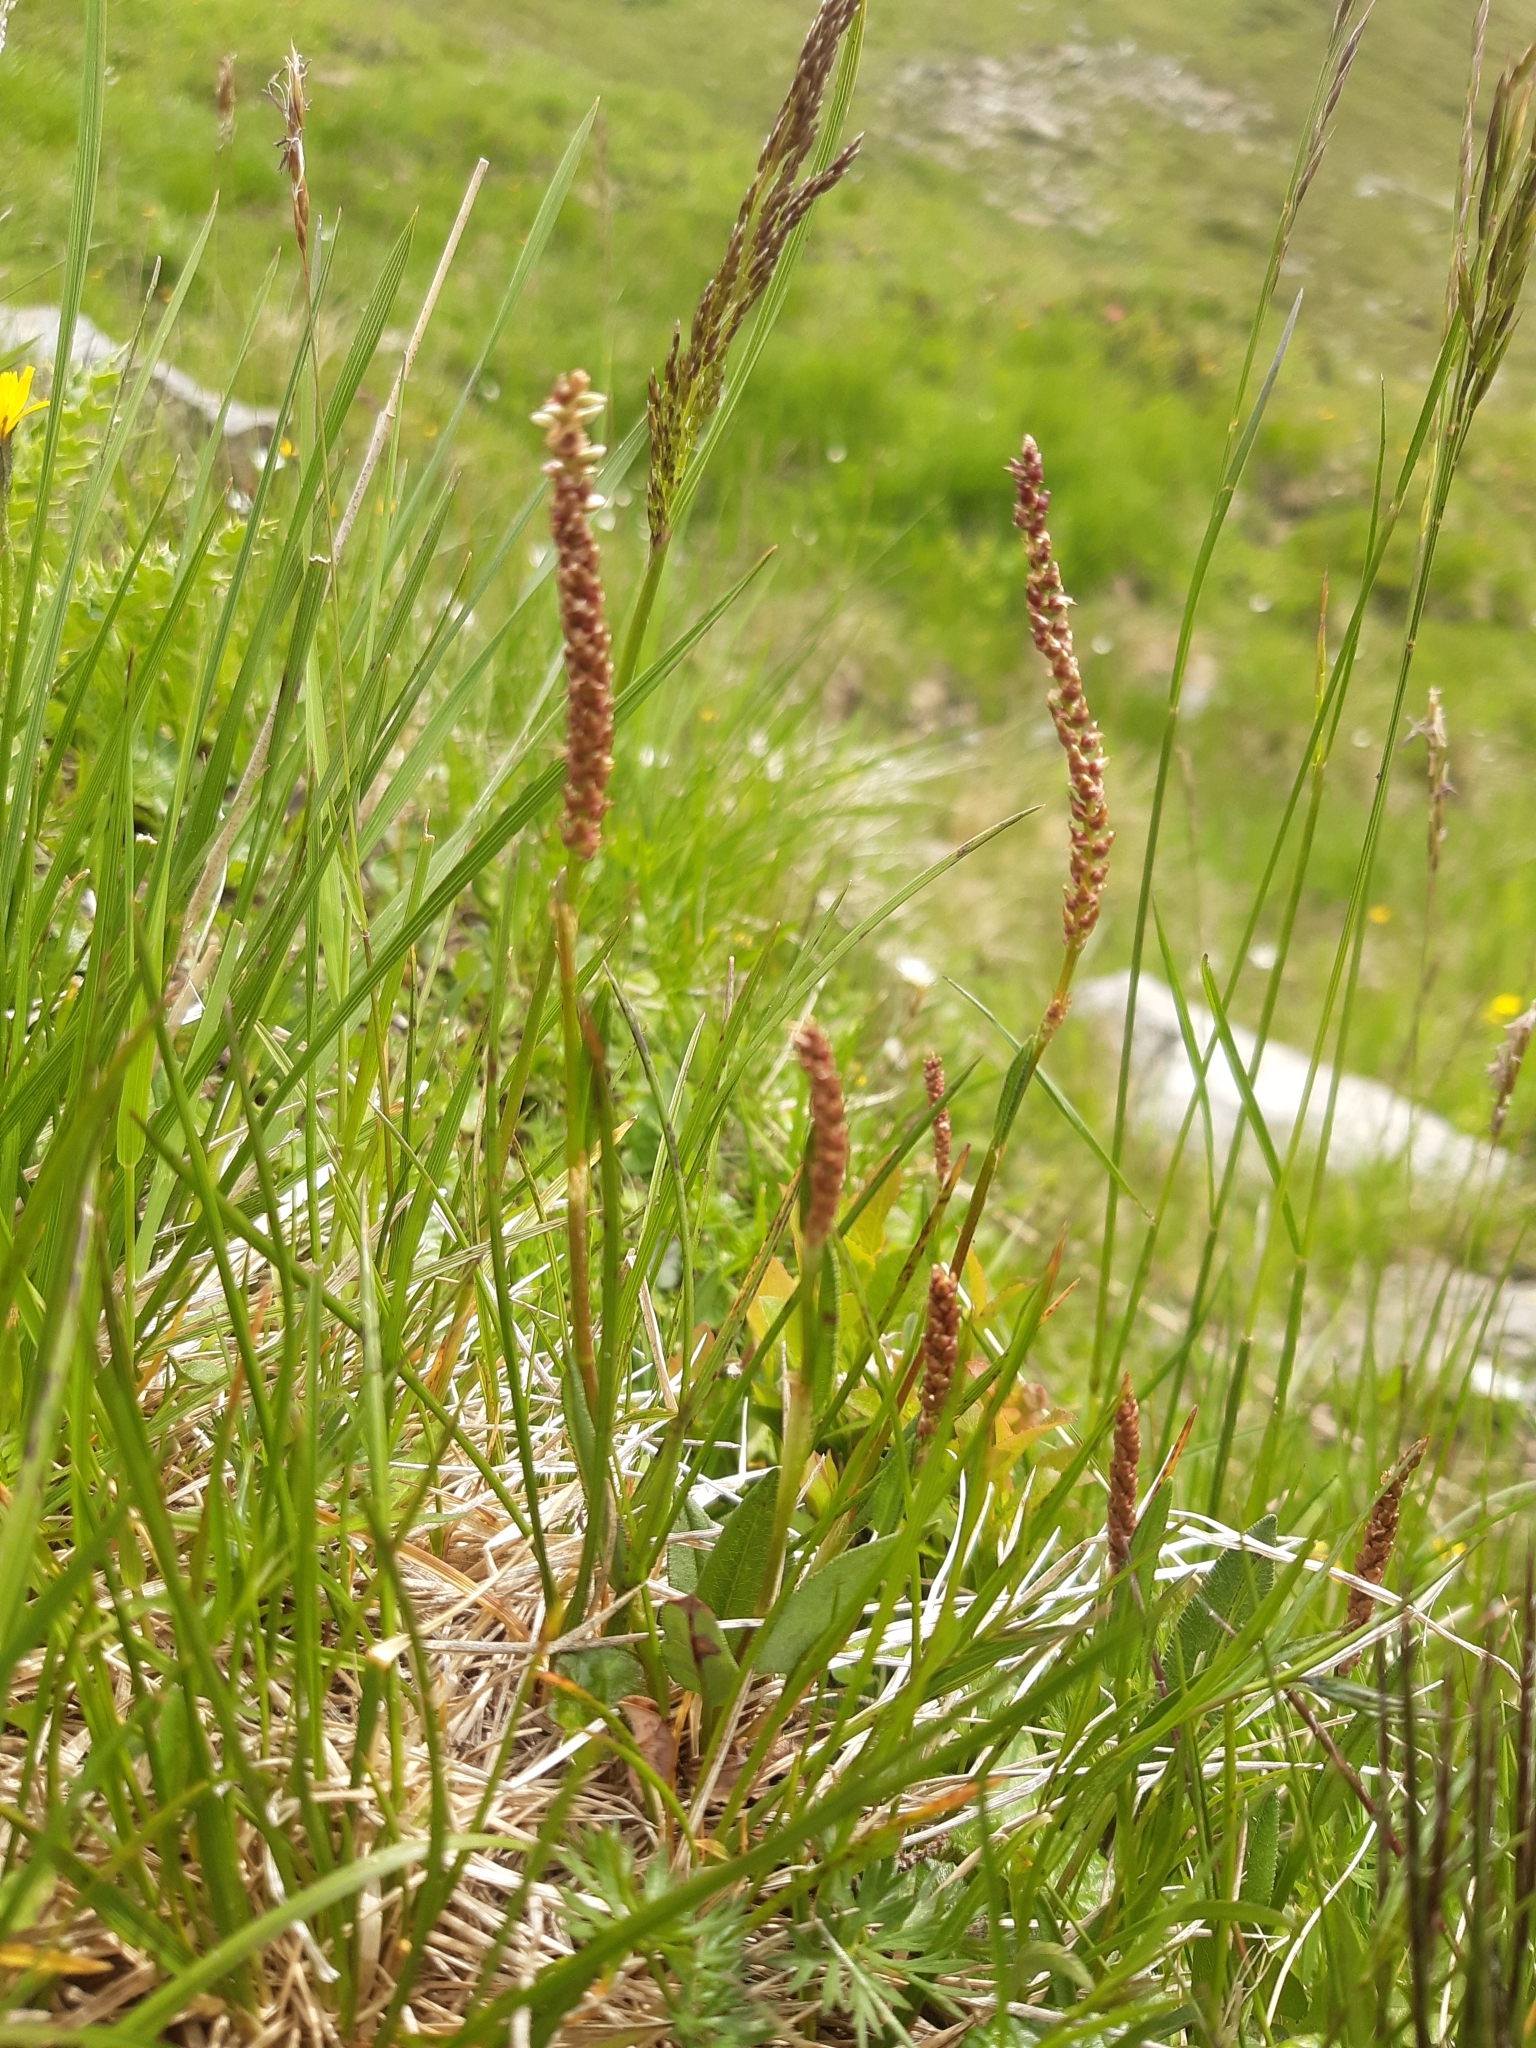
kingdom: Plantae
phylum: Tracheophyta
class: Magnoliopsida
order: Caryophyllales
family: Polygonaceae
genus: Bistorta
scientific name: Bistorta vivipara
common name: Alpine bistort
